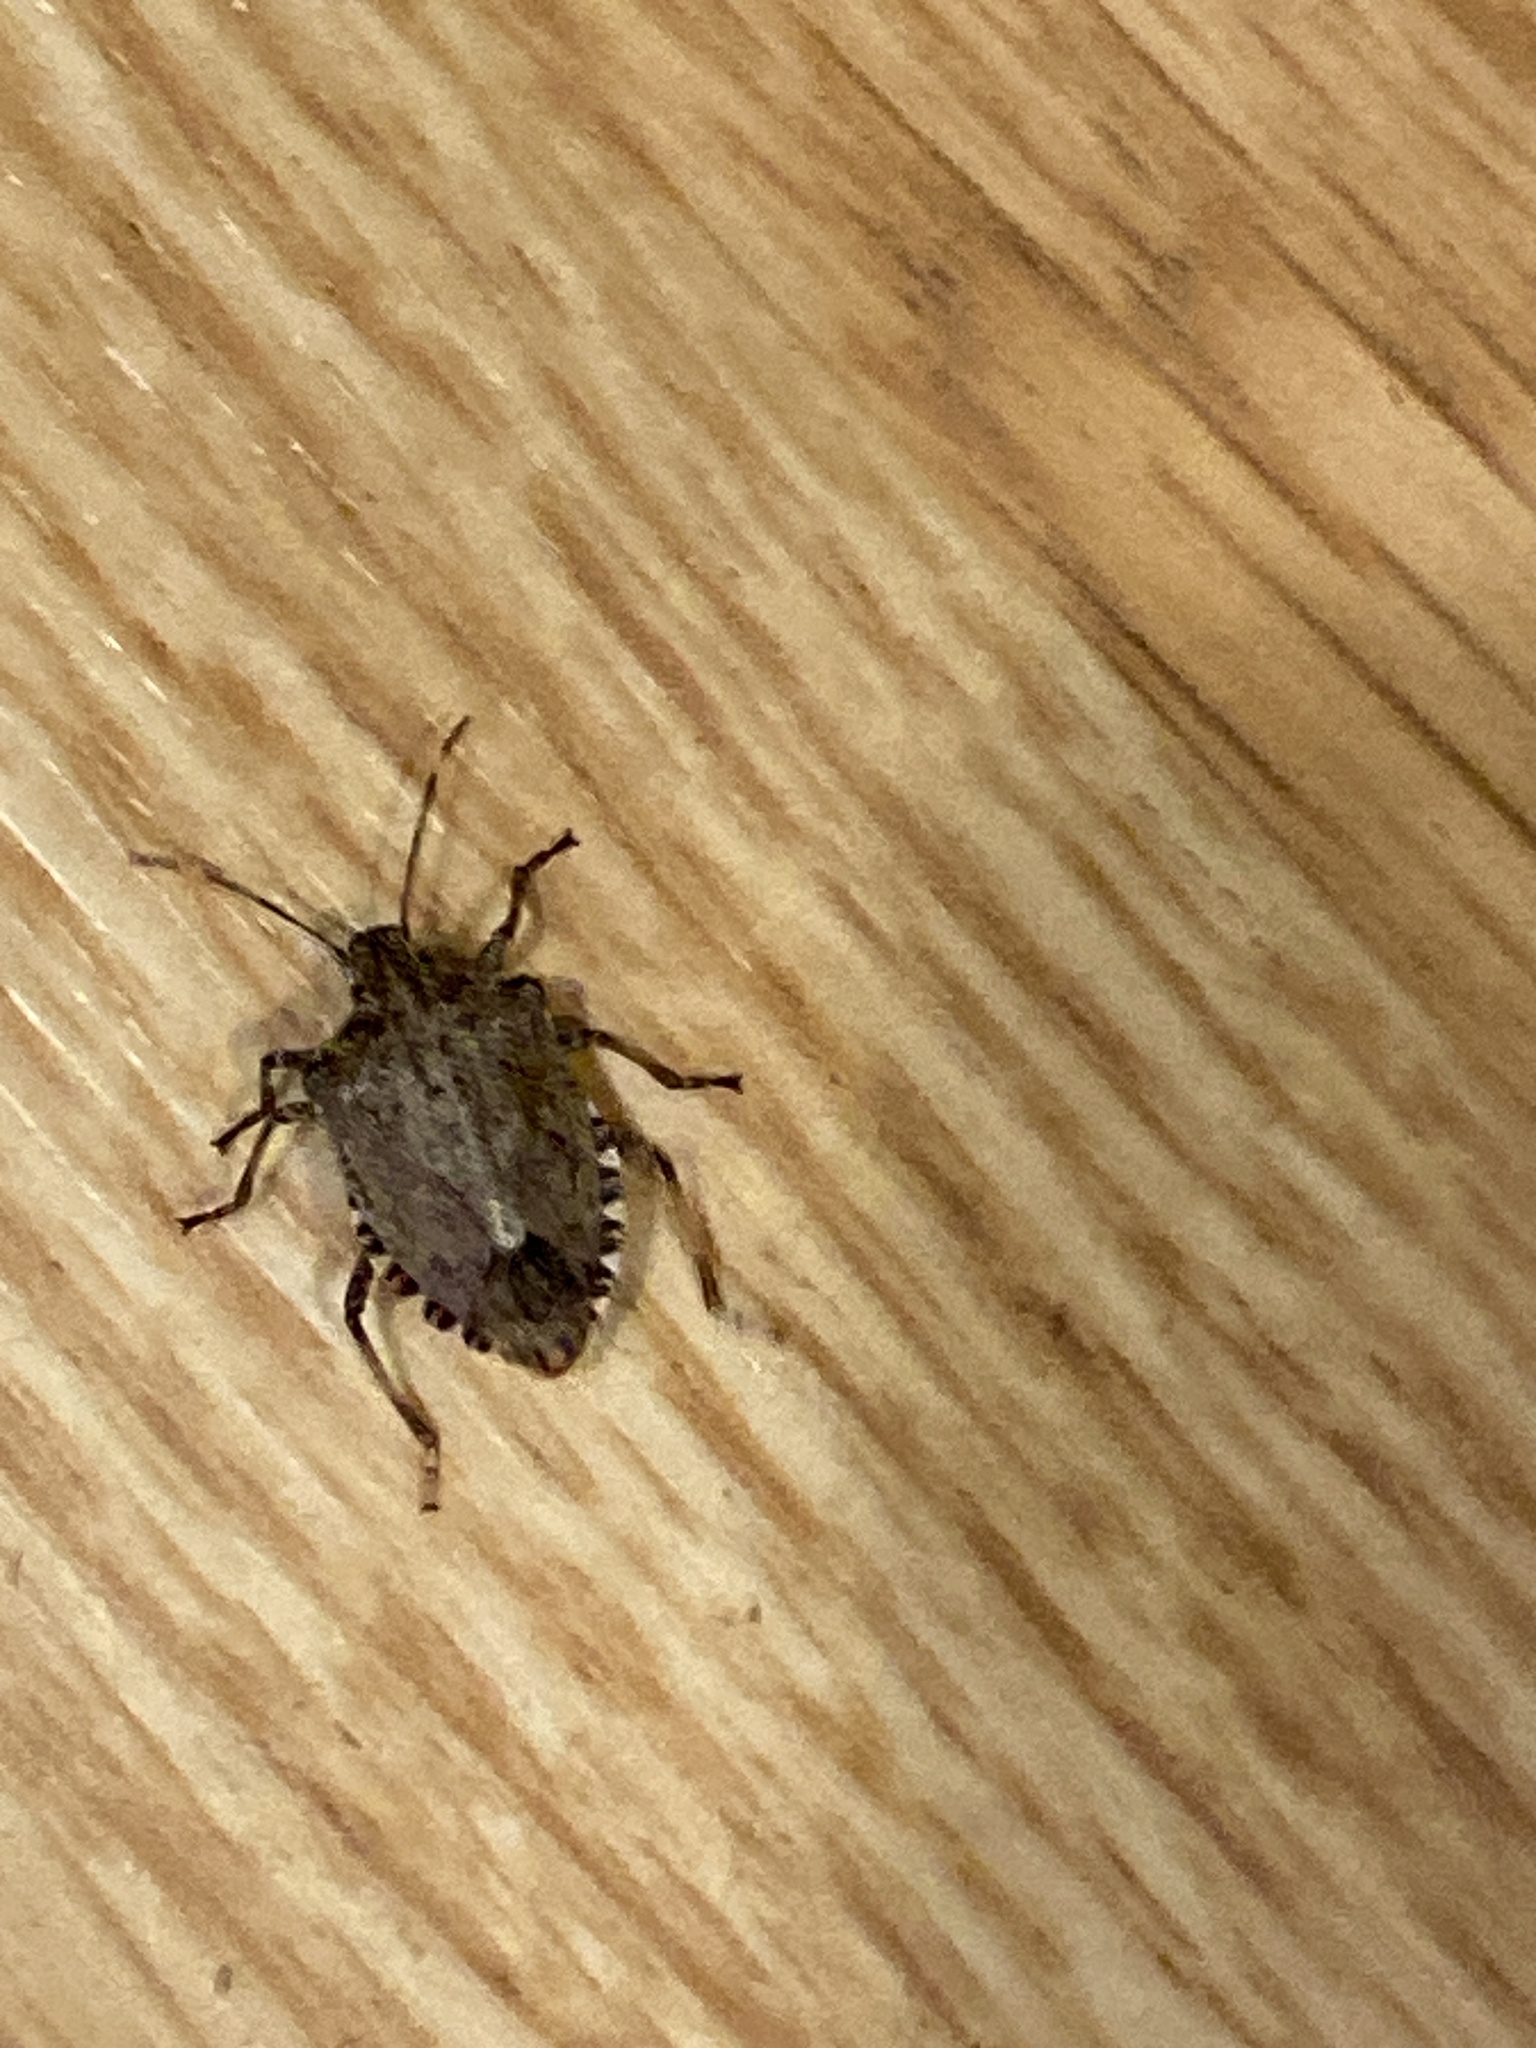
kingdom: Animalia
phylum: Arthropoda
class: Insecta
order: Hemiptera
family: Pentatomidae
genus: Halyomorpha
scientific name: Halyomorpha halys
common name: Brown marmorated stink bug
